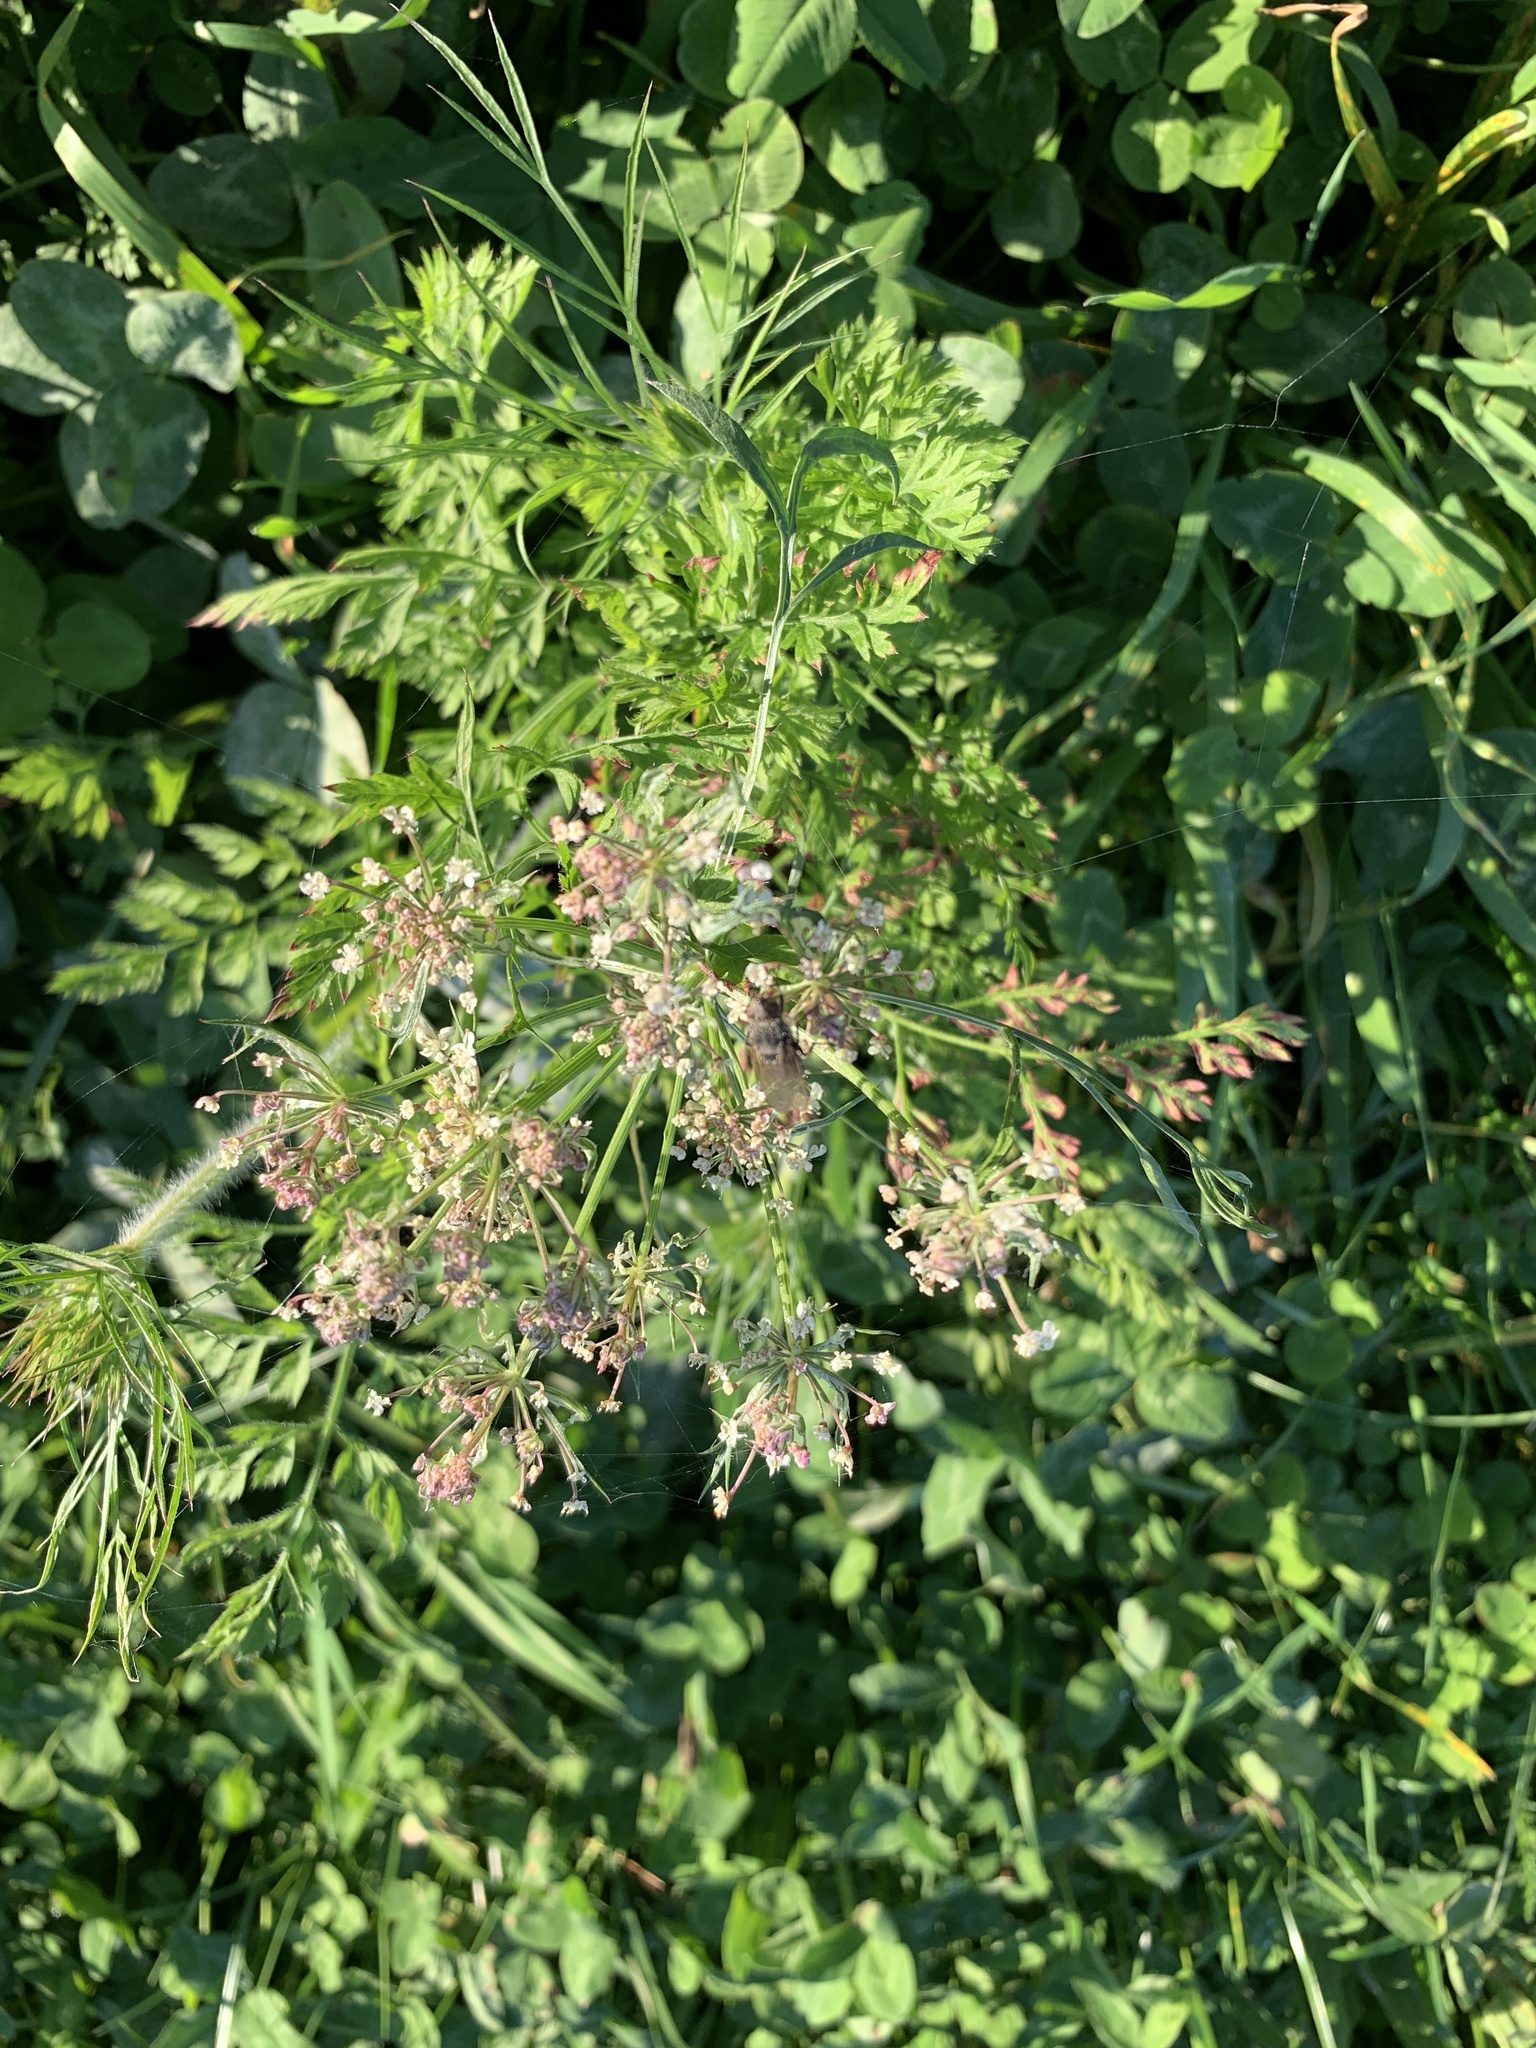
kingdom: Plantae
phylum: Tracheophyta
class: Magnoliopsida
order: Apiales
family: Apiaceae
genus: Daucus
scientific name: Daucus carota
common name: Wild carrot
